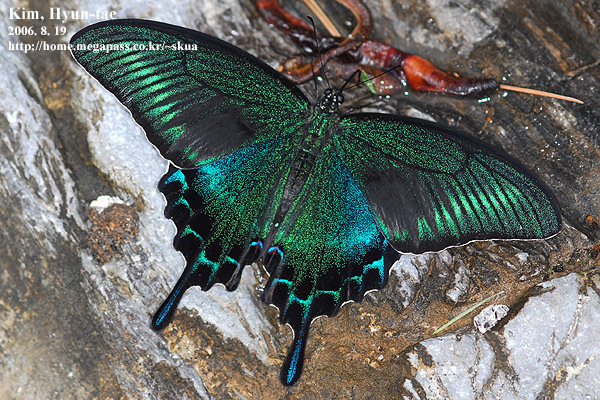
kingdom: Animalia
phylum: Arthropoda
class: Insecta
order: Lepidoptera
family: Papilionidae
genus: Papilio
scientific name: Papilio maackii
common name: Alpine black swallowtail
